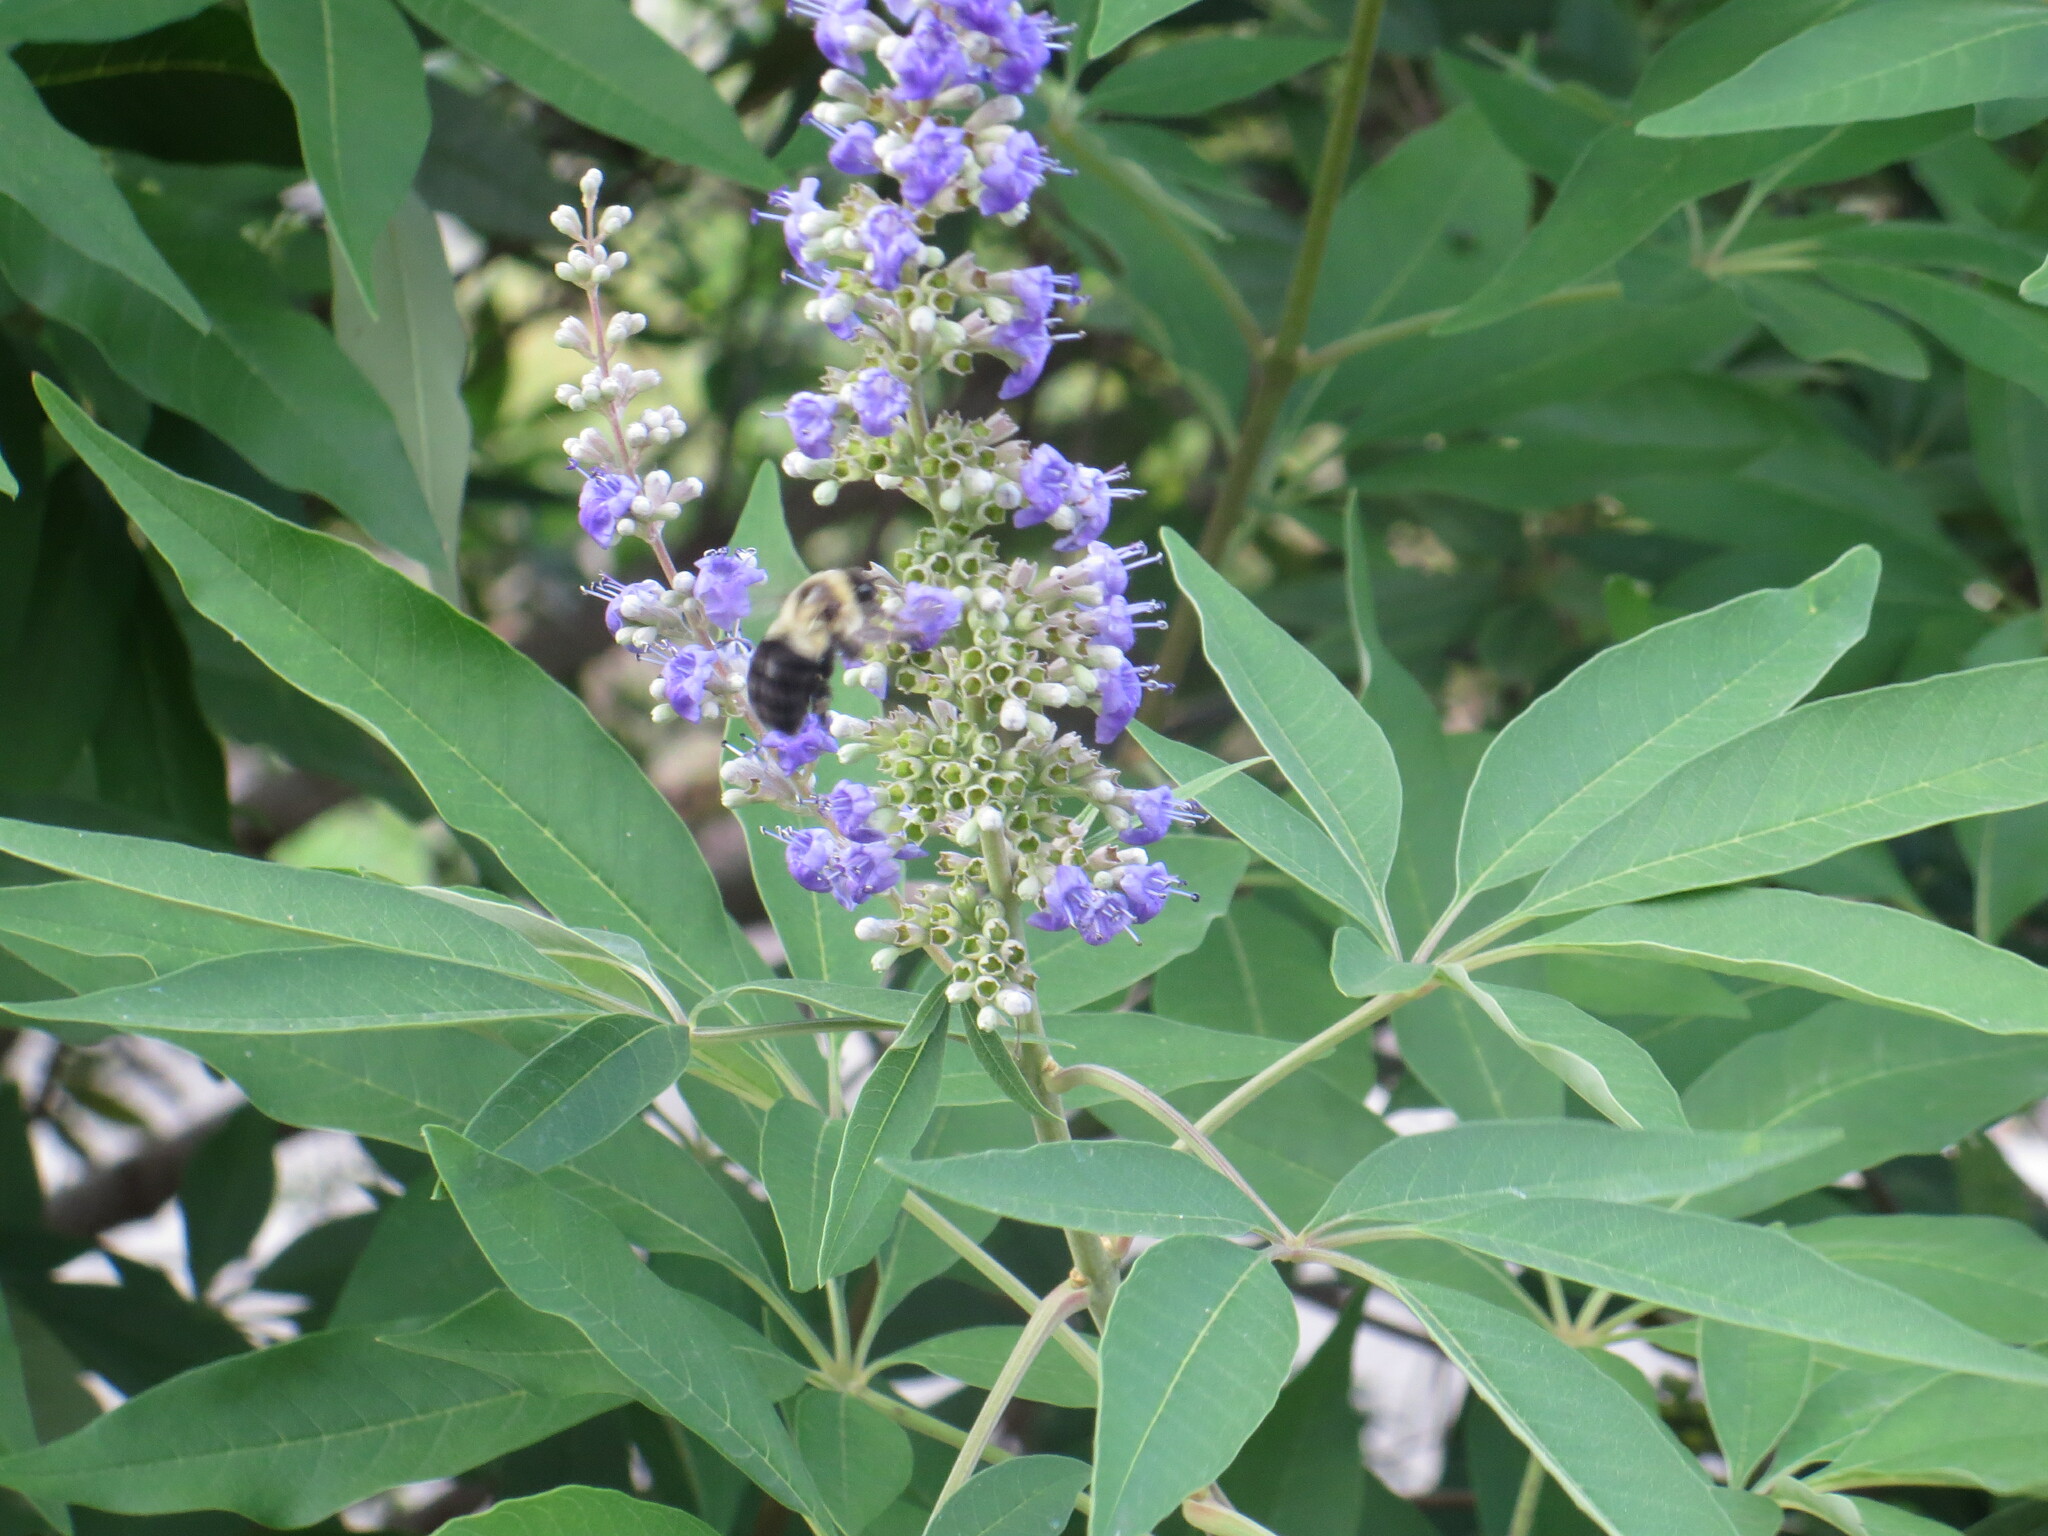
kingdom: Animalia
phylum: Arthropoda
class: Insecta
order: Hymenoptera
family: Apidae
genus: Bombus
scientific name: Bombus impatiens
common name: Common eastern bumble bee
